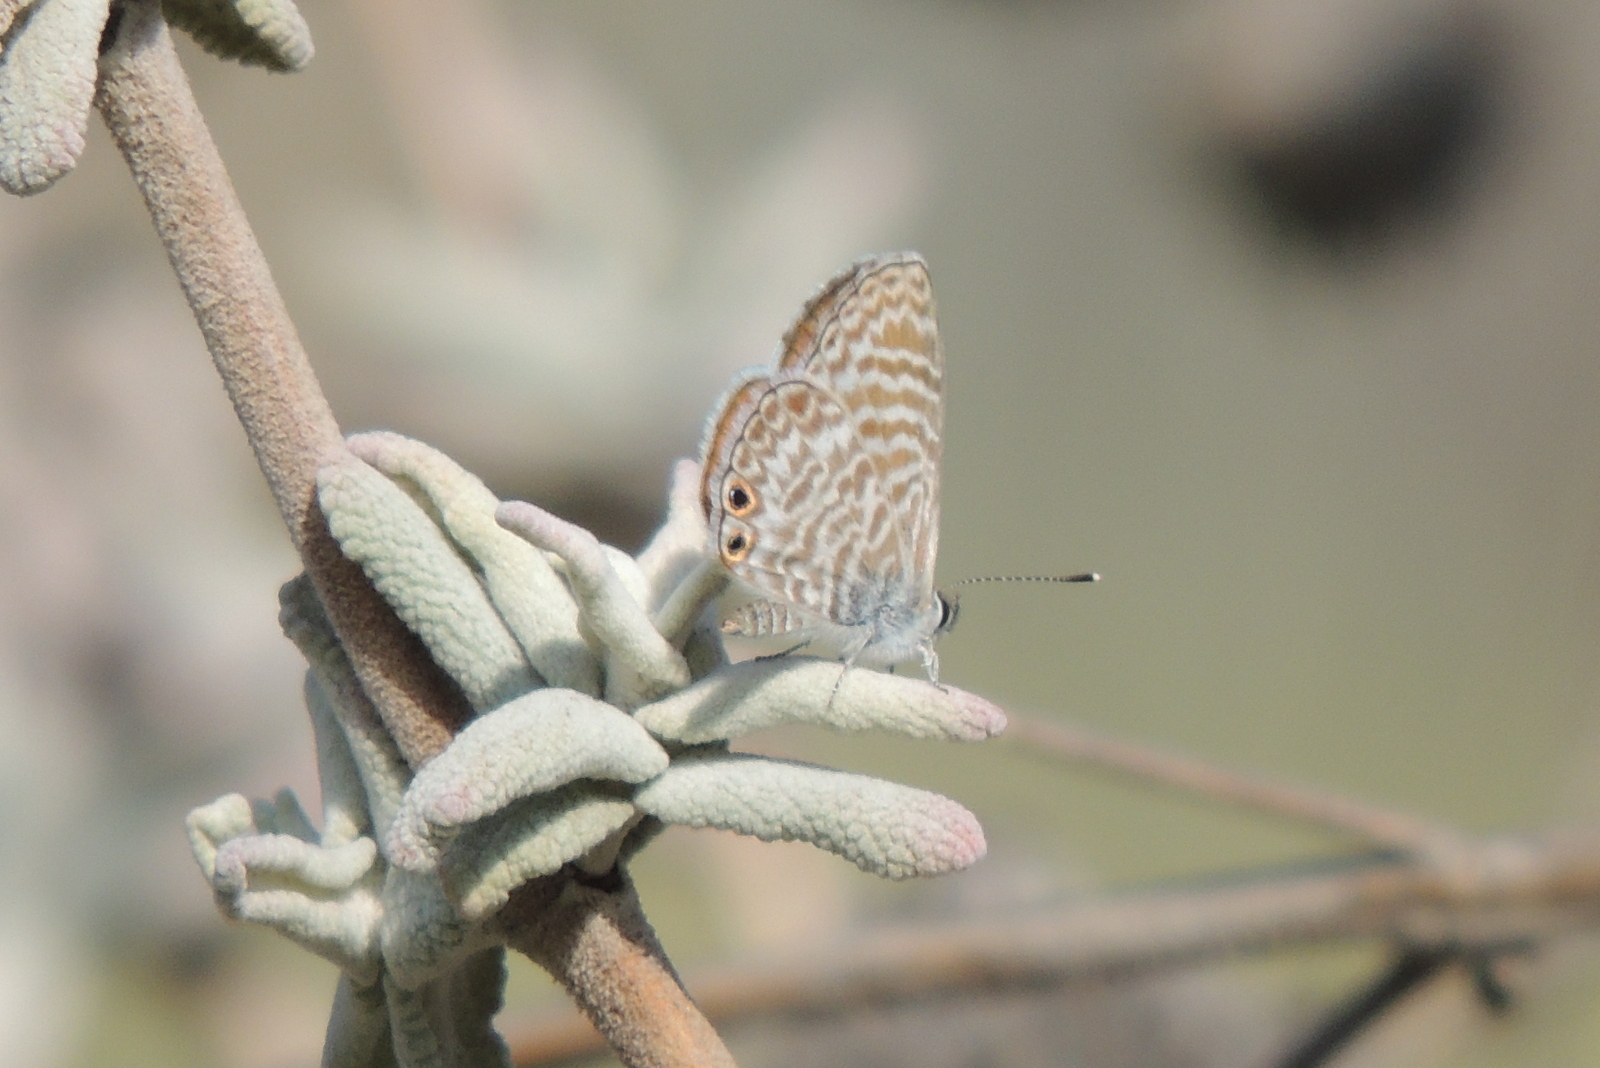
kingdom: Animalia
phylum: Arthropoda
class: Insecta
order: Lepidoptera
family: Lycaenidae
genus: Leptotes
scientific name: Leptotes marina
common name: Marine blue
